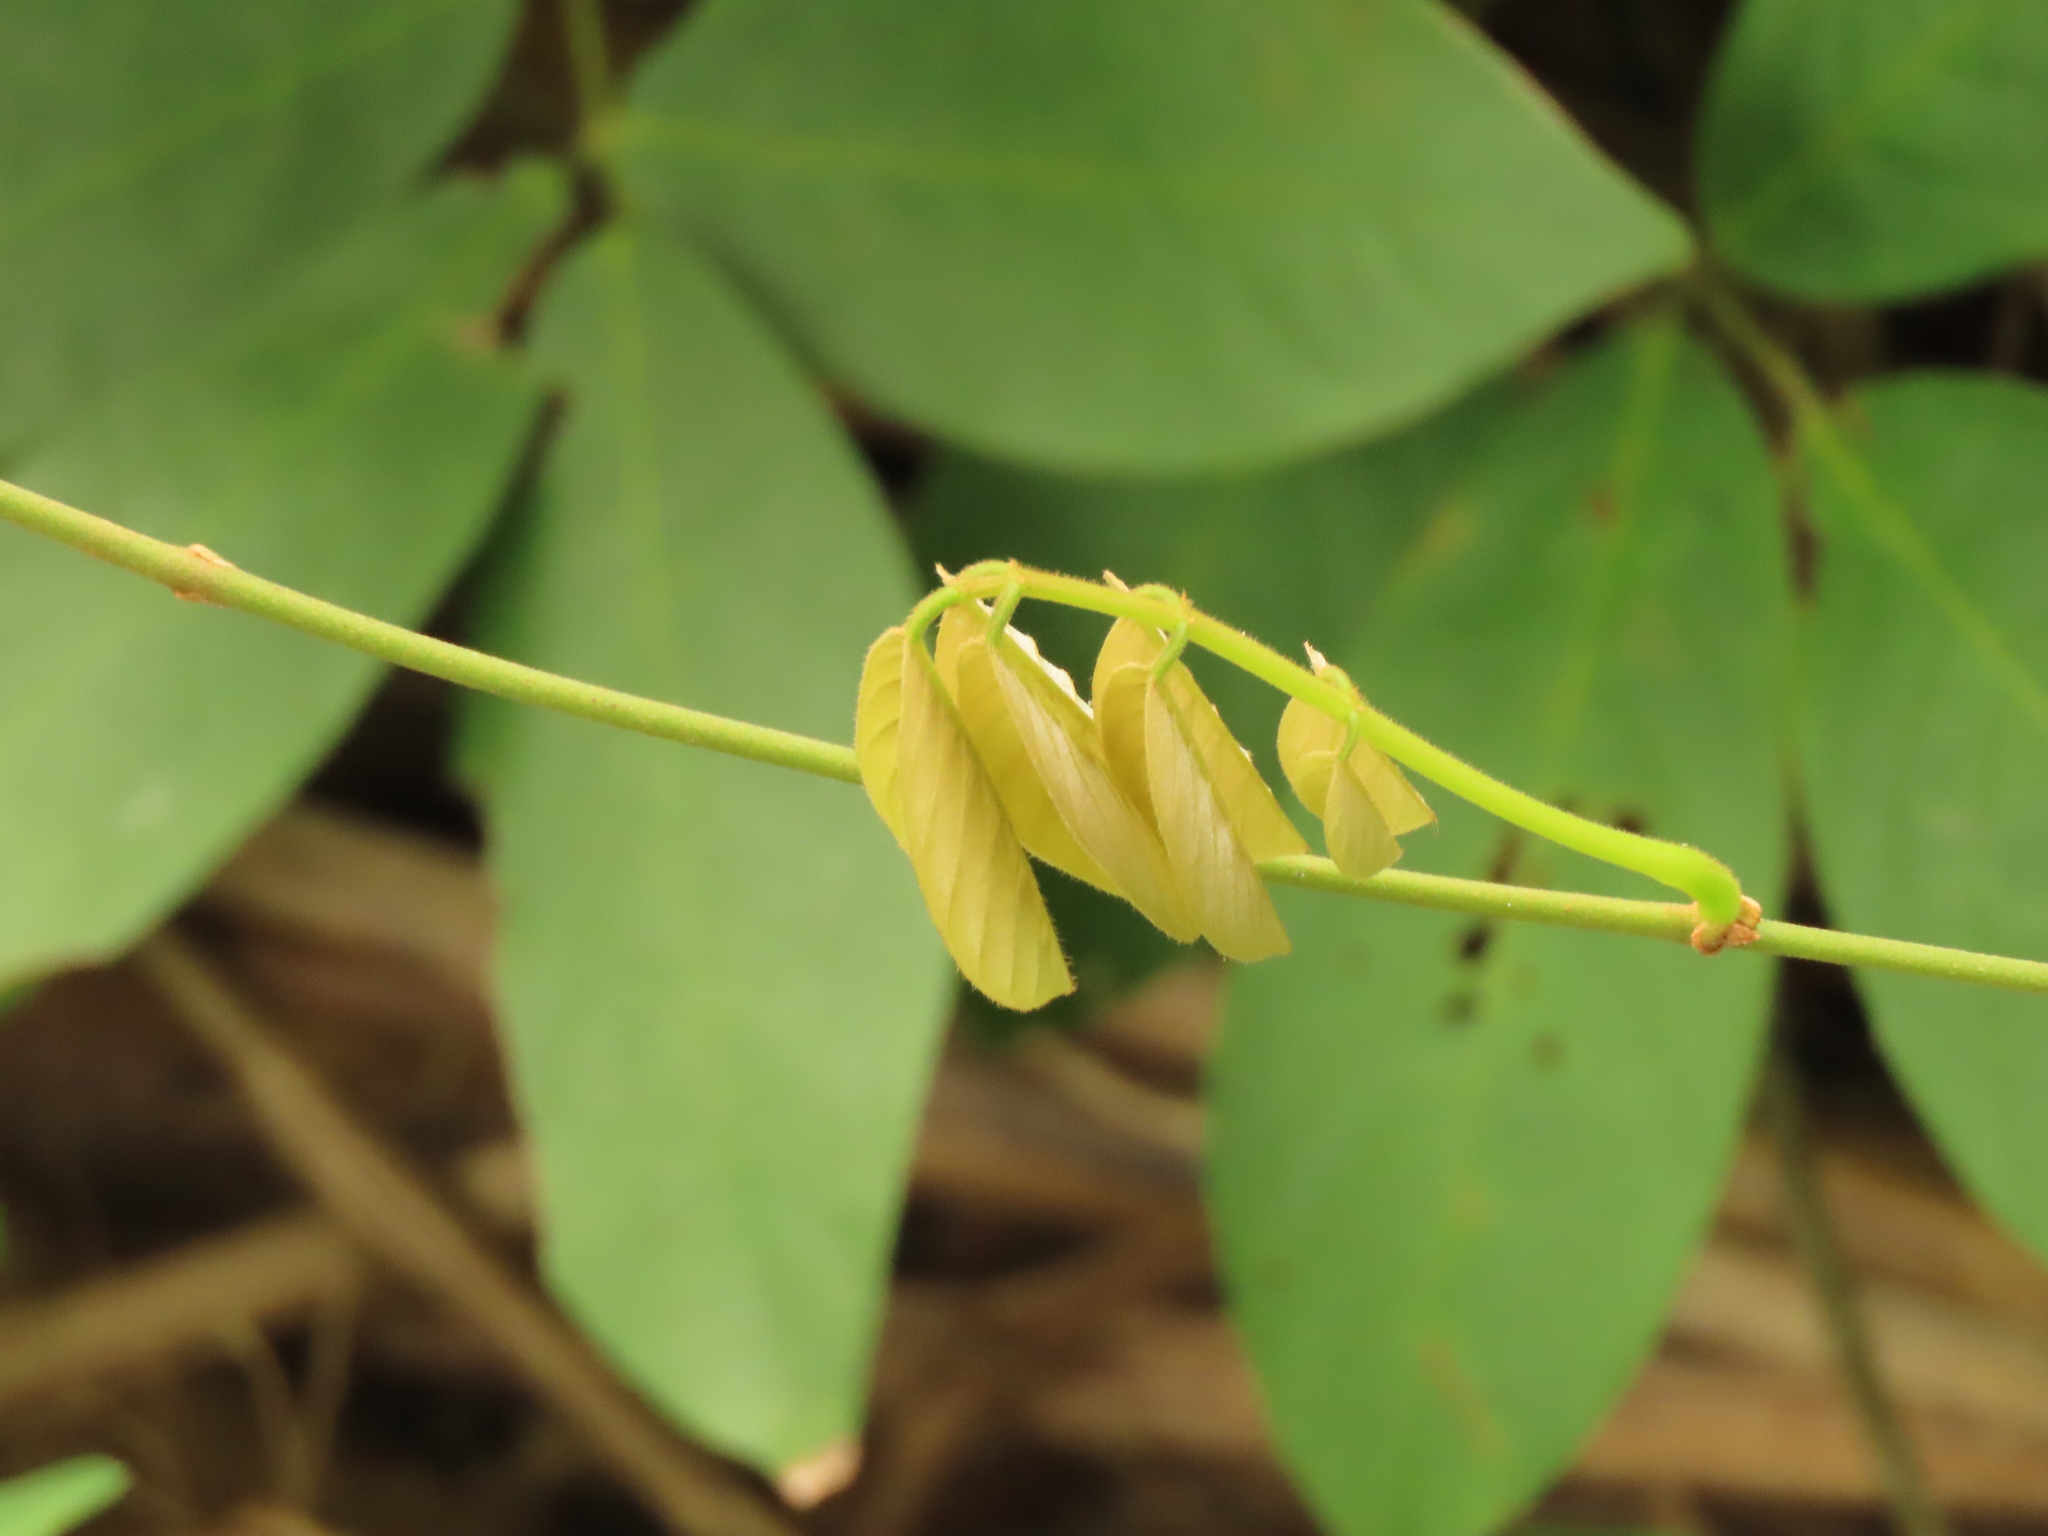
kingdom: Plantae
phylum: Tracheophyta
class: Magnoliopsida
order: Fabales
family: Fabaceae
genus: Millettia
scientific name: Millettia pachycarpa
